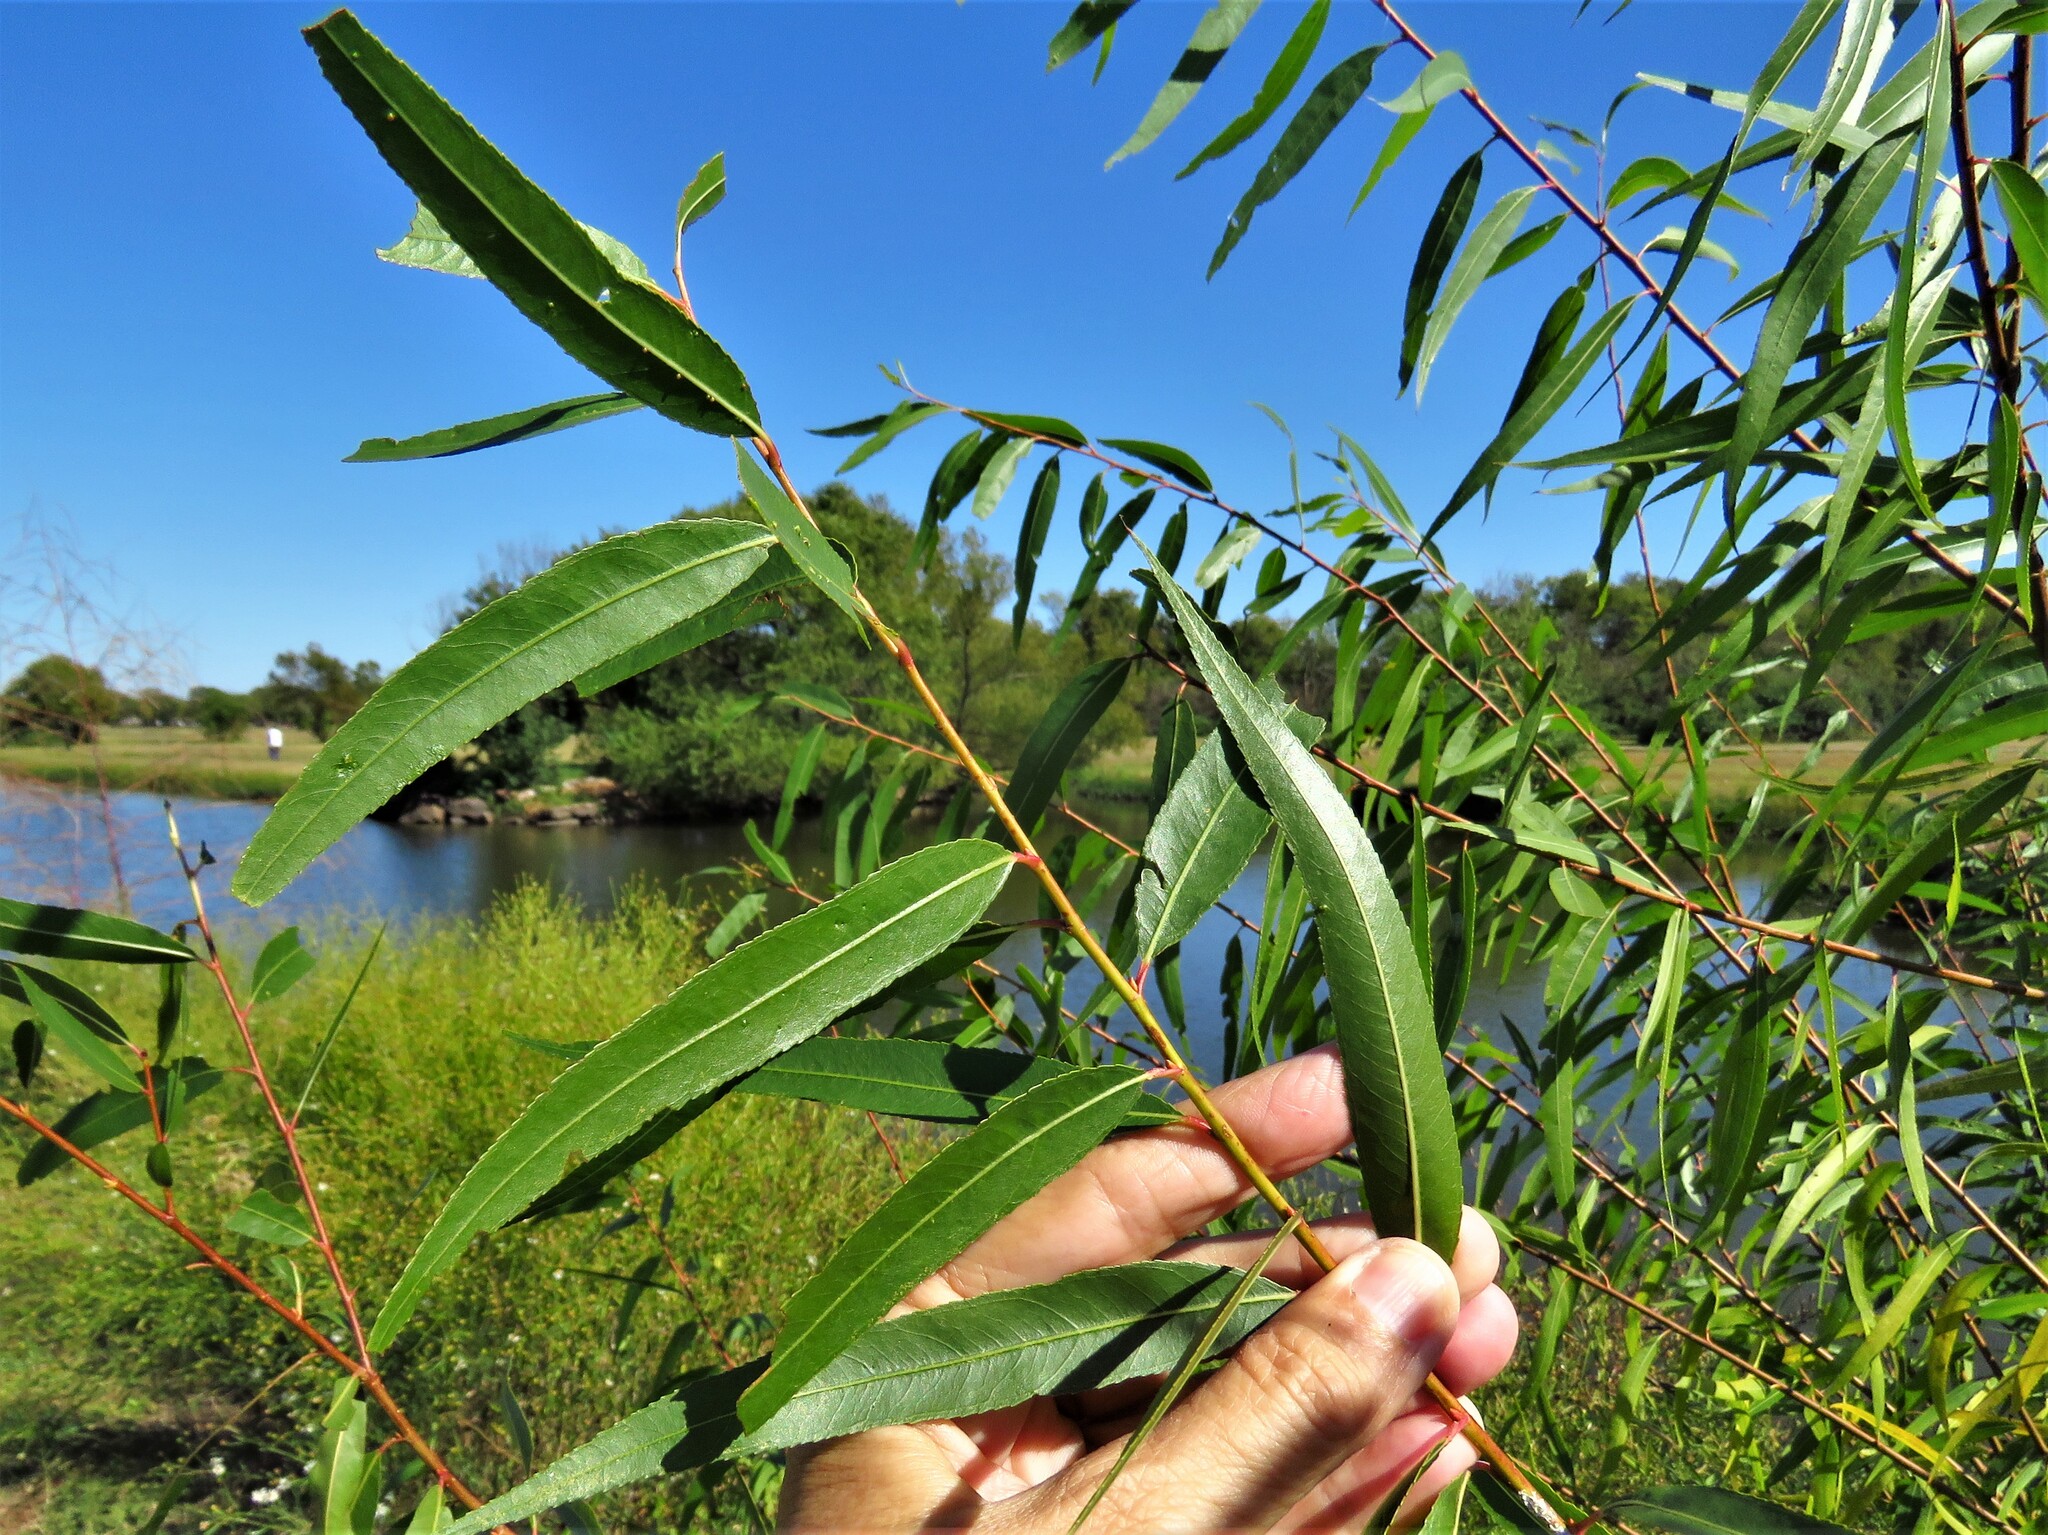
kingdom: Plantae
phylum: Tracheophyta
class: Magnoliopsida
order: Malpighiales
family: Salicaceae
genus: Salix
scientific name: Salix nigra
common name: Black willow
